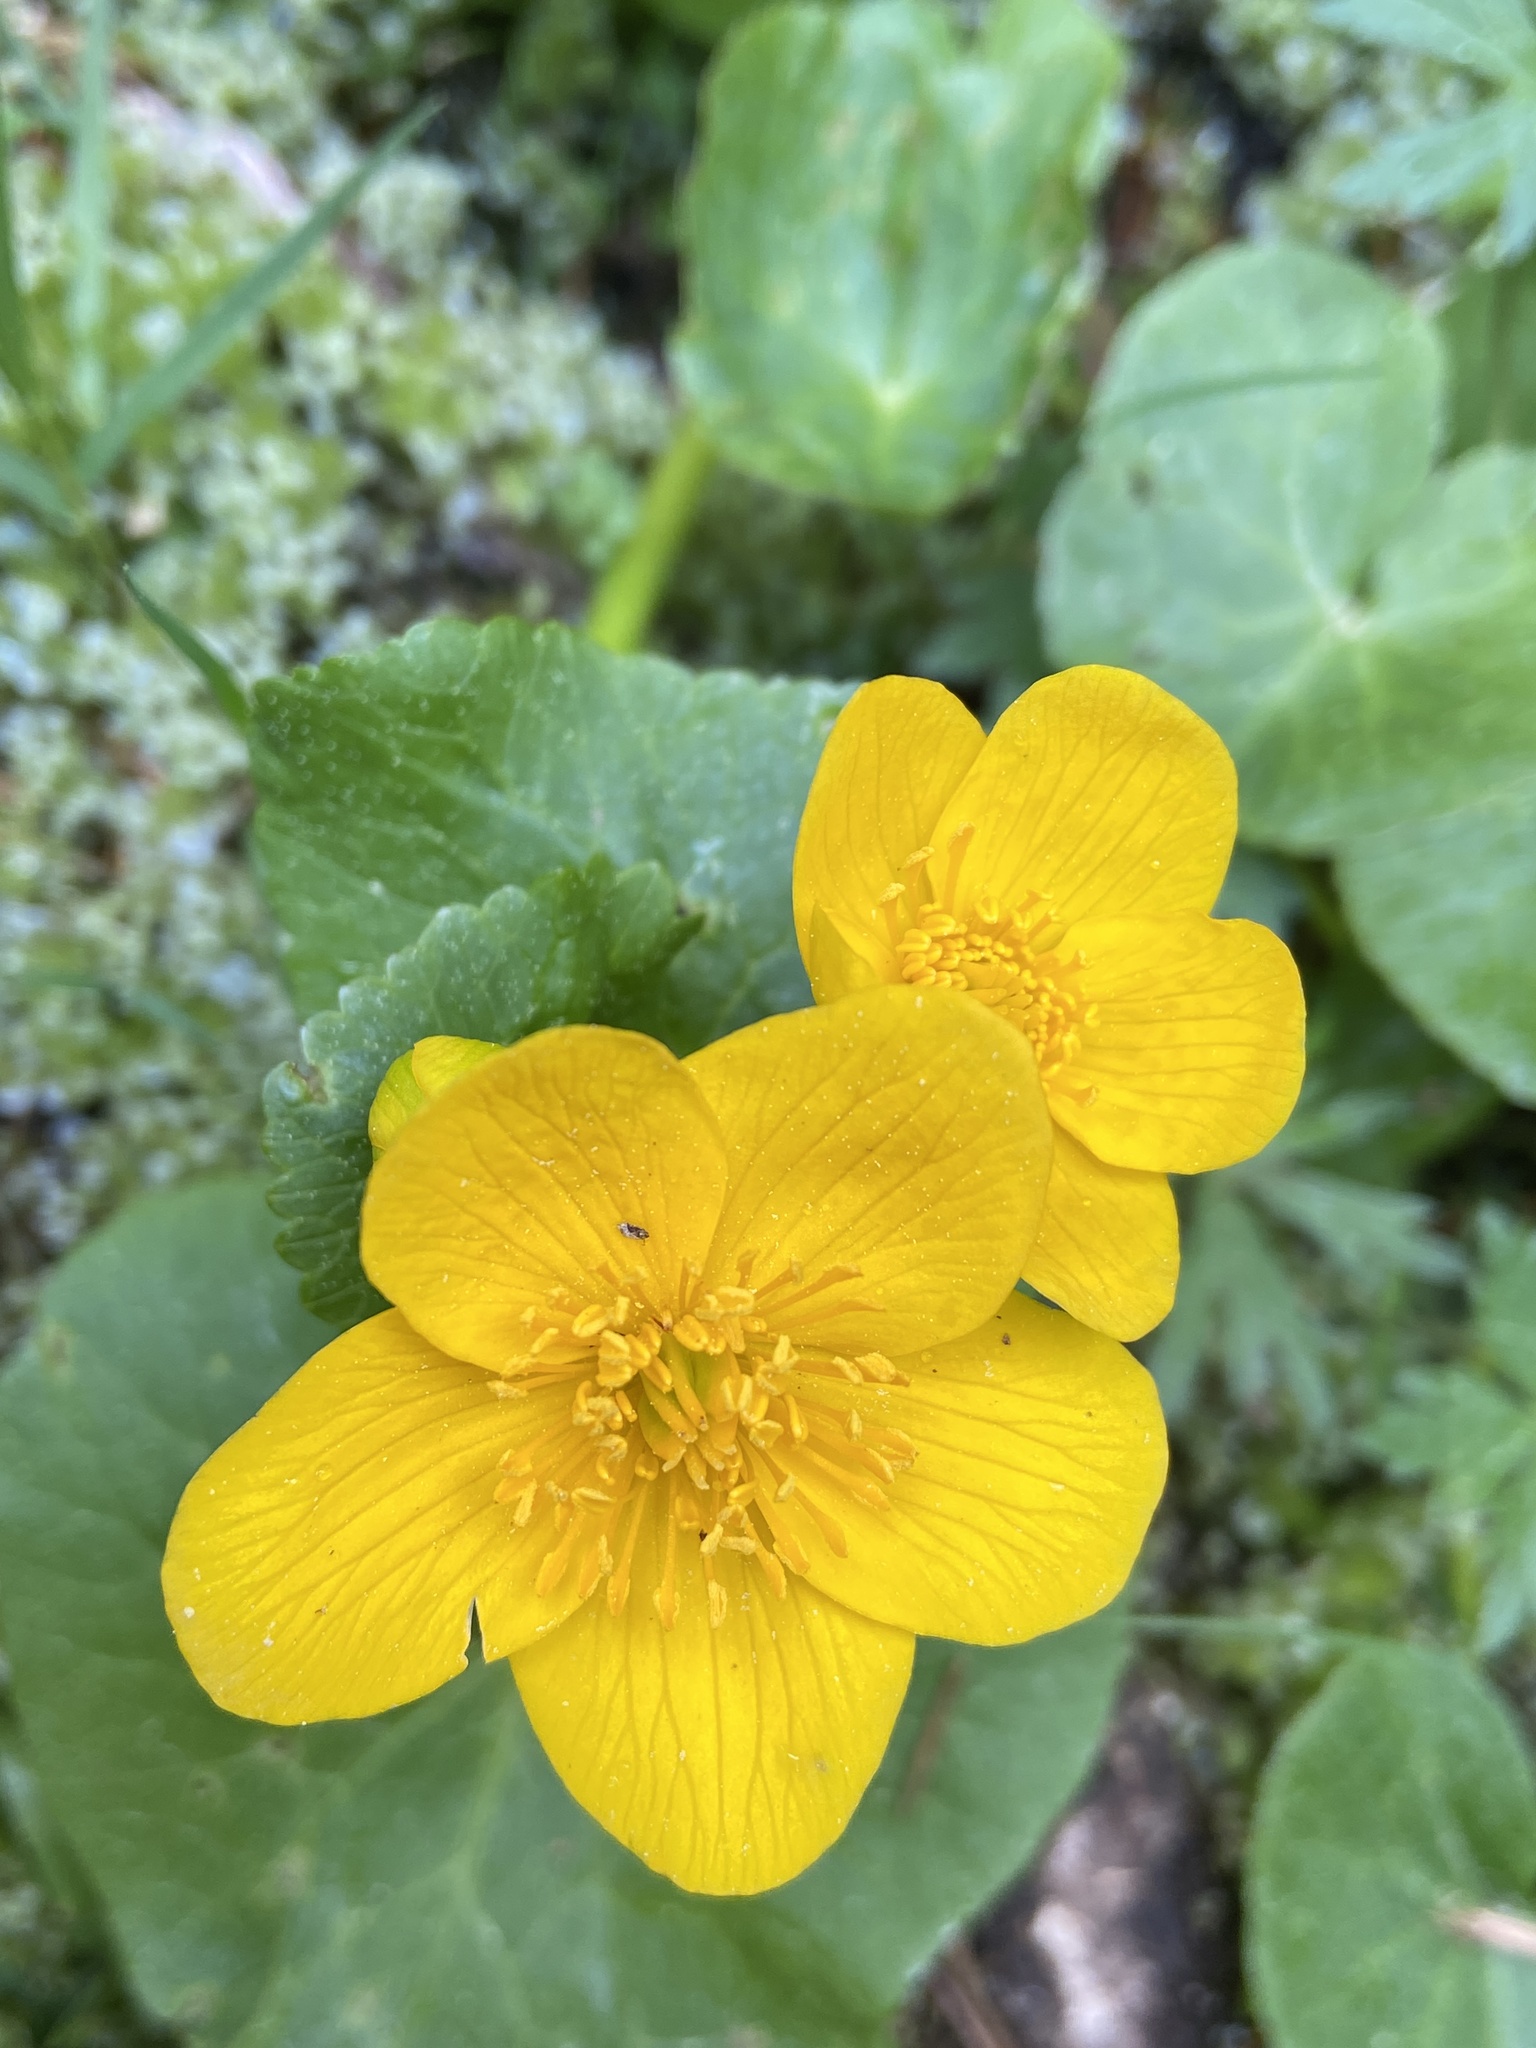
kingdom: Plantae
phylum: Tracheophyta
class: Magnoliopsida
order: Ranunculales
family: Ranunculaceae
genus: Caltha
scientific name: Caltha palustris
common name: Marsh marigold
